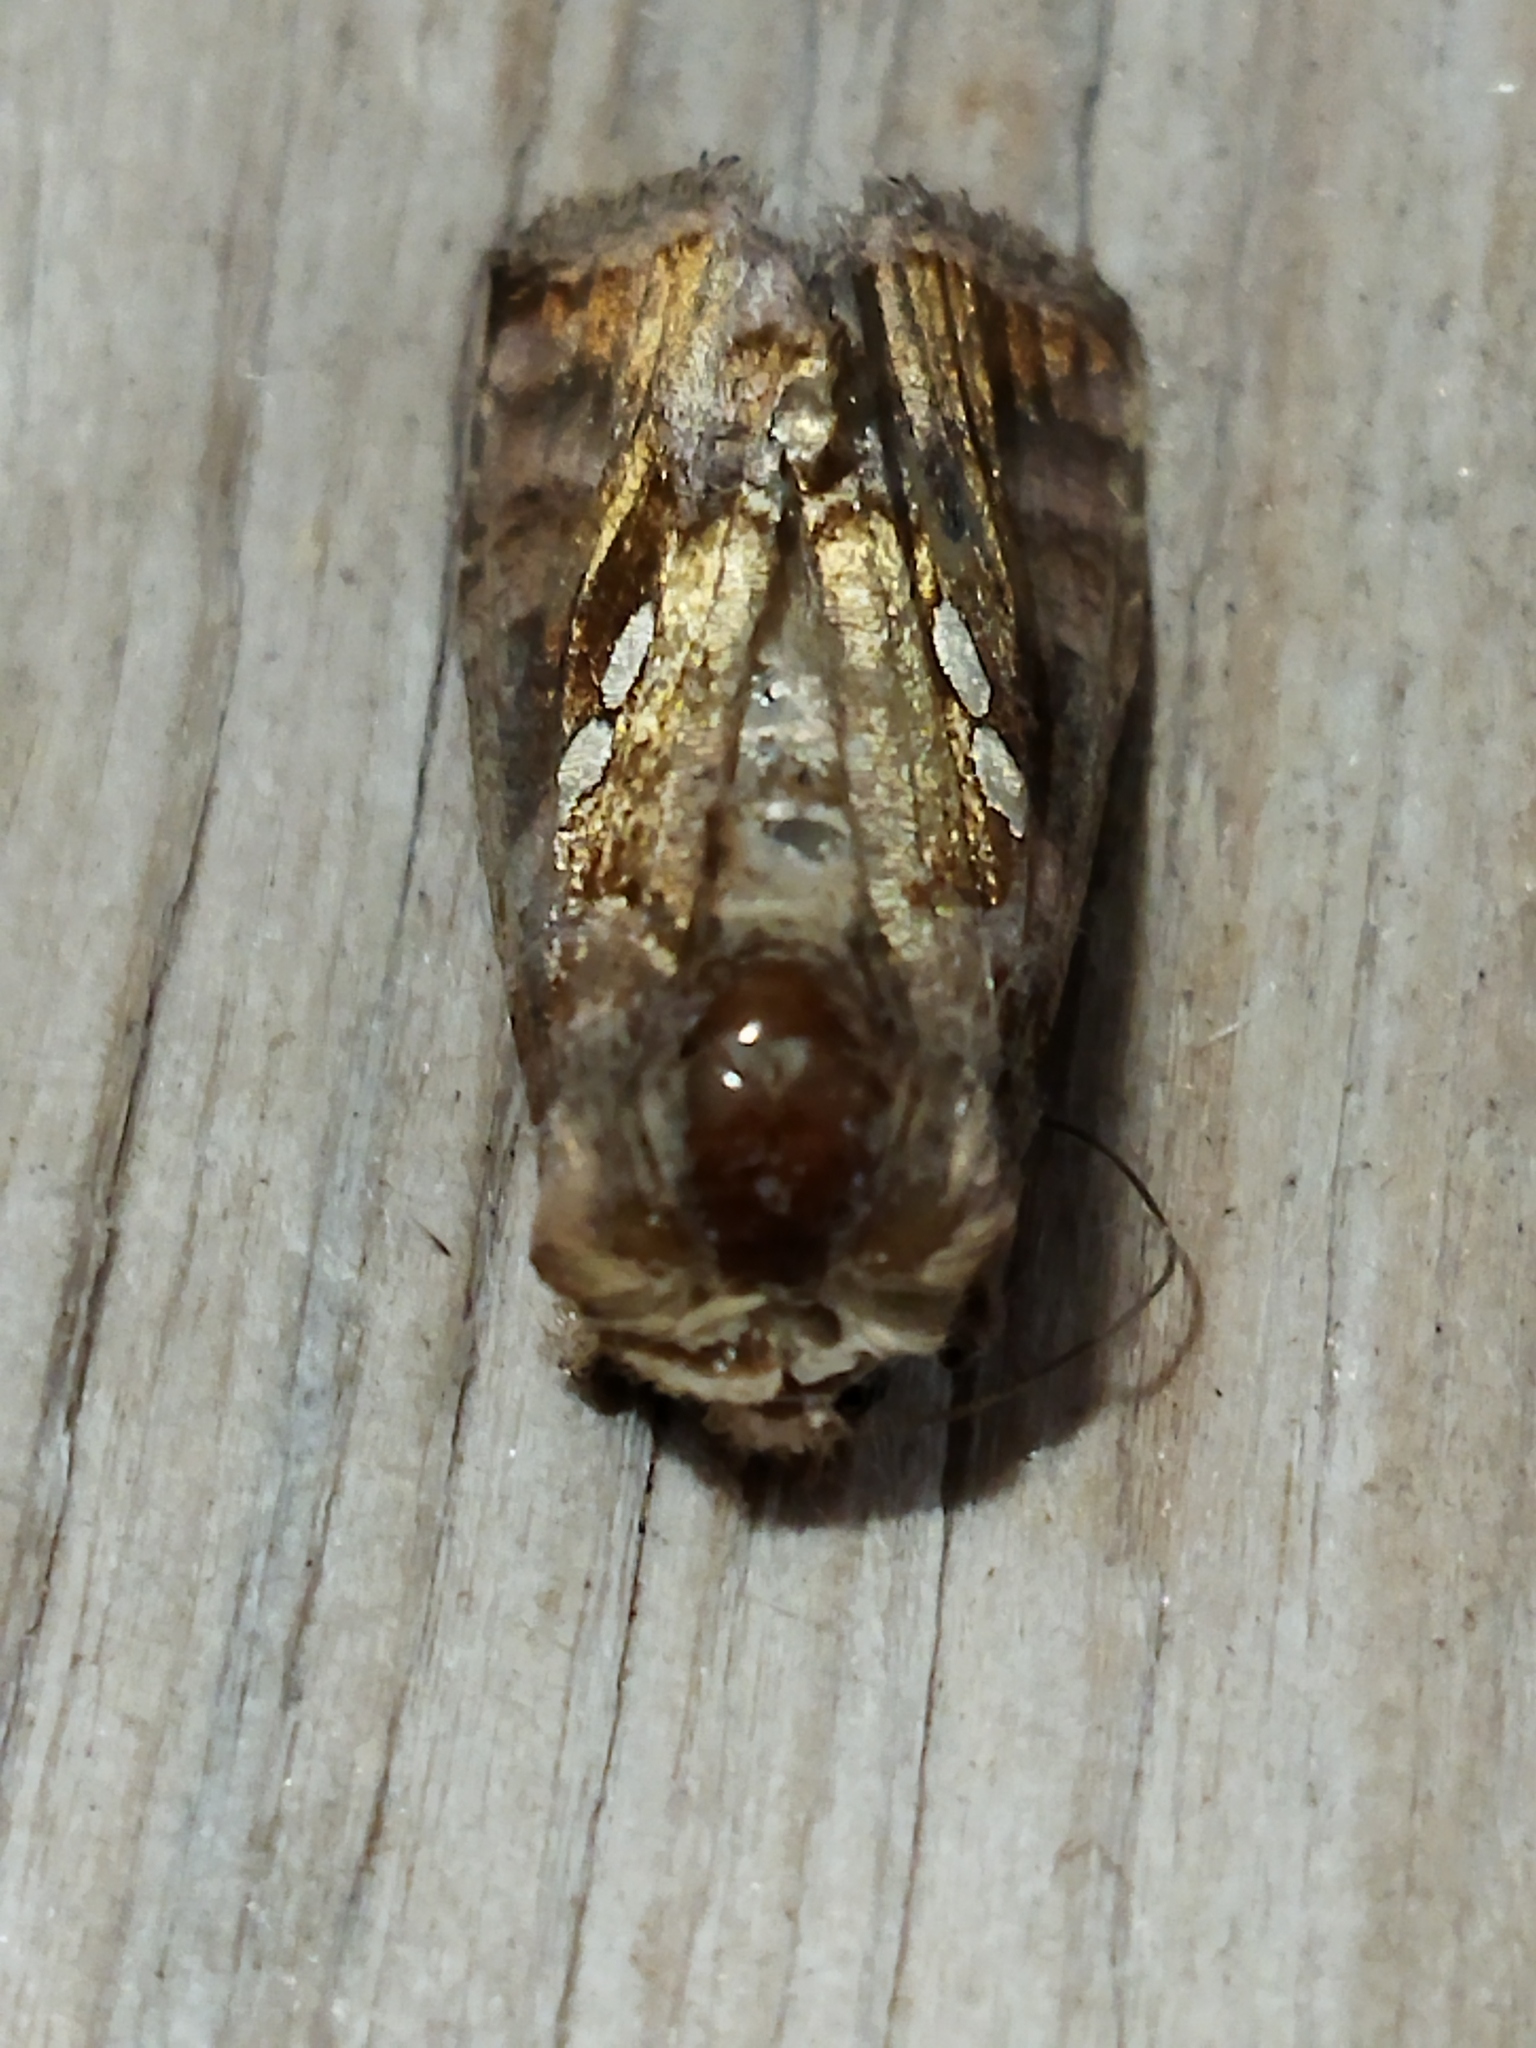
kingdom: Animalia
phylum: Arthropoda
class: Insecta
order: Lepidoptera
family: Noctuidae
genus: Chrysodeixis
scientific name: Chrysodeixis chalcites
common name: Golden twin-spot
